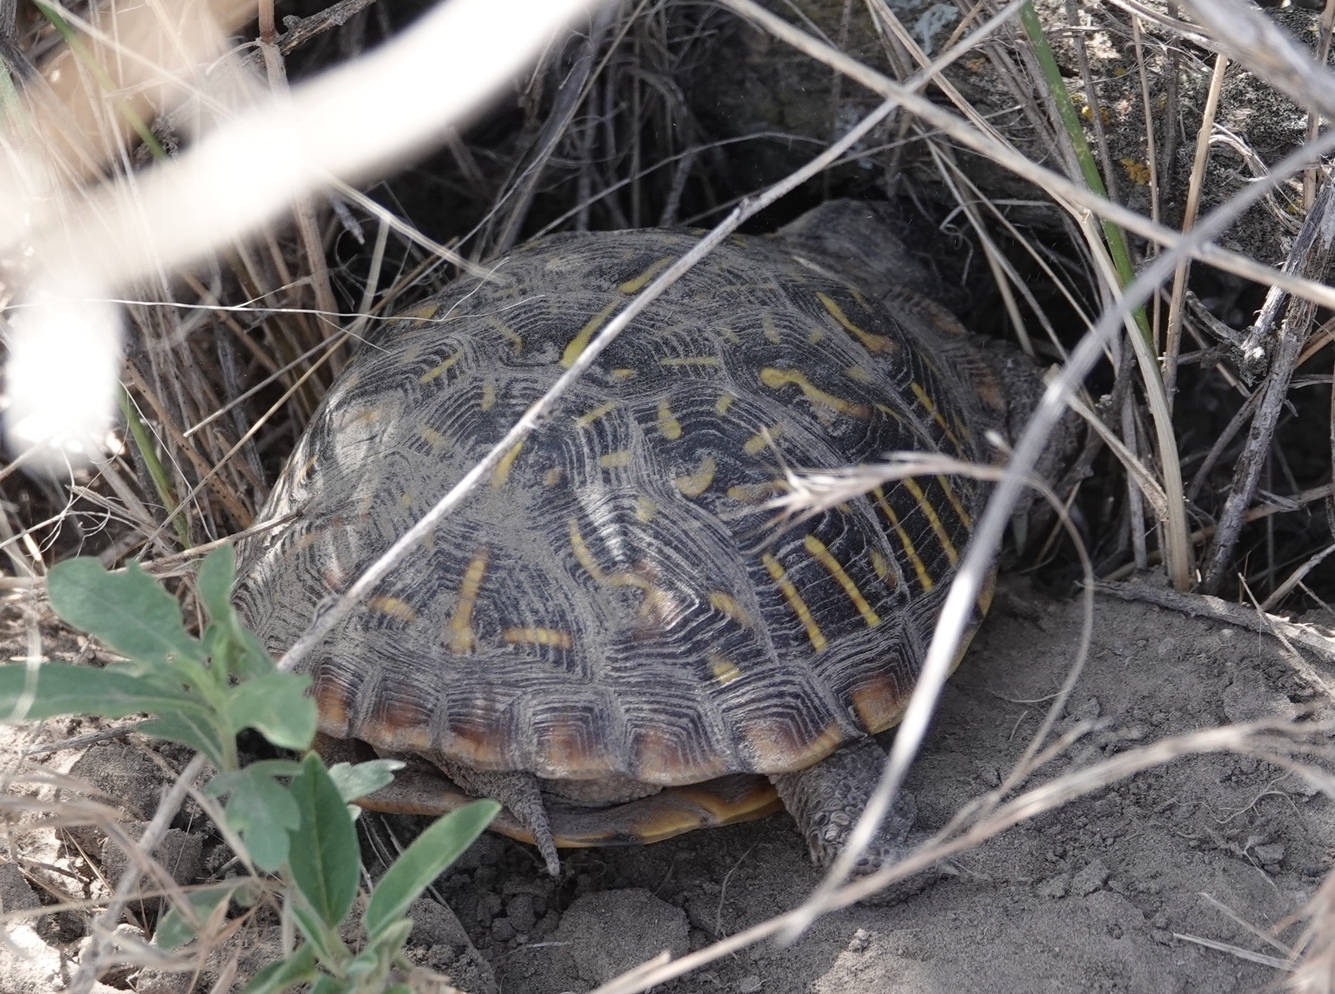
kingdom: Animalia
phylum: Chordata
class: Testudines
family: Emydidae
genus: Terrapene
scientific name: Terrapene ornata
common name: Western box turtle
